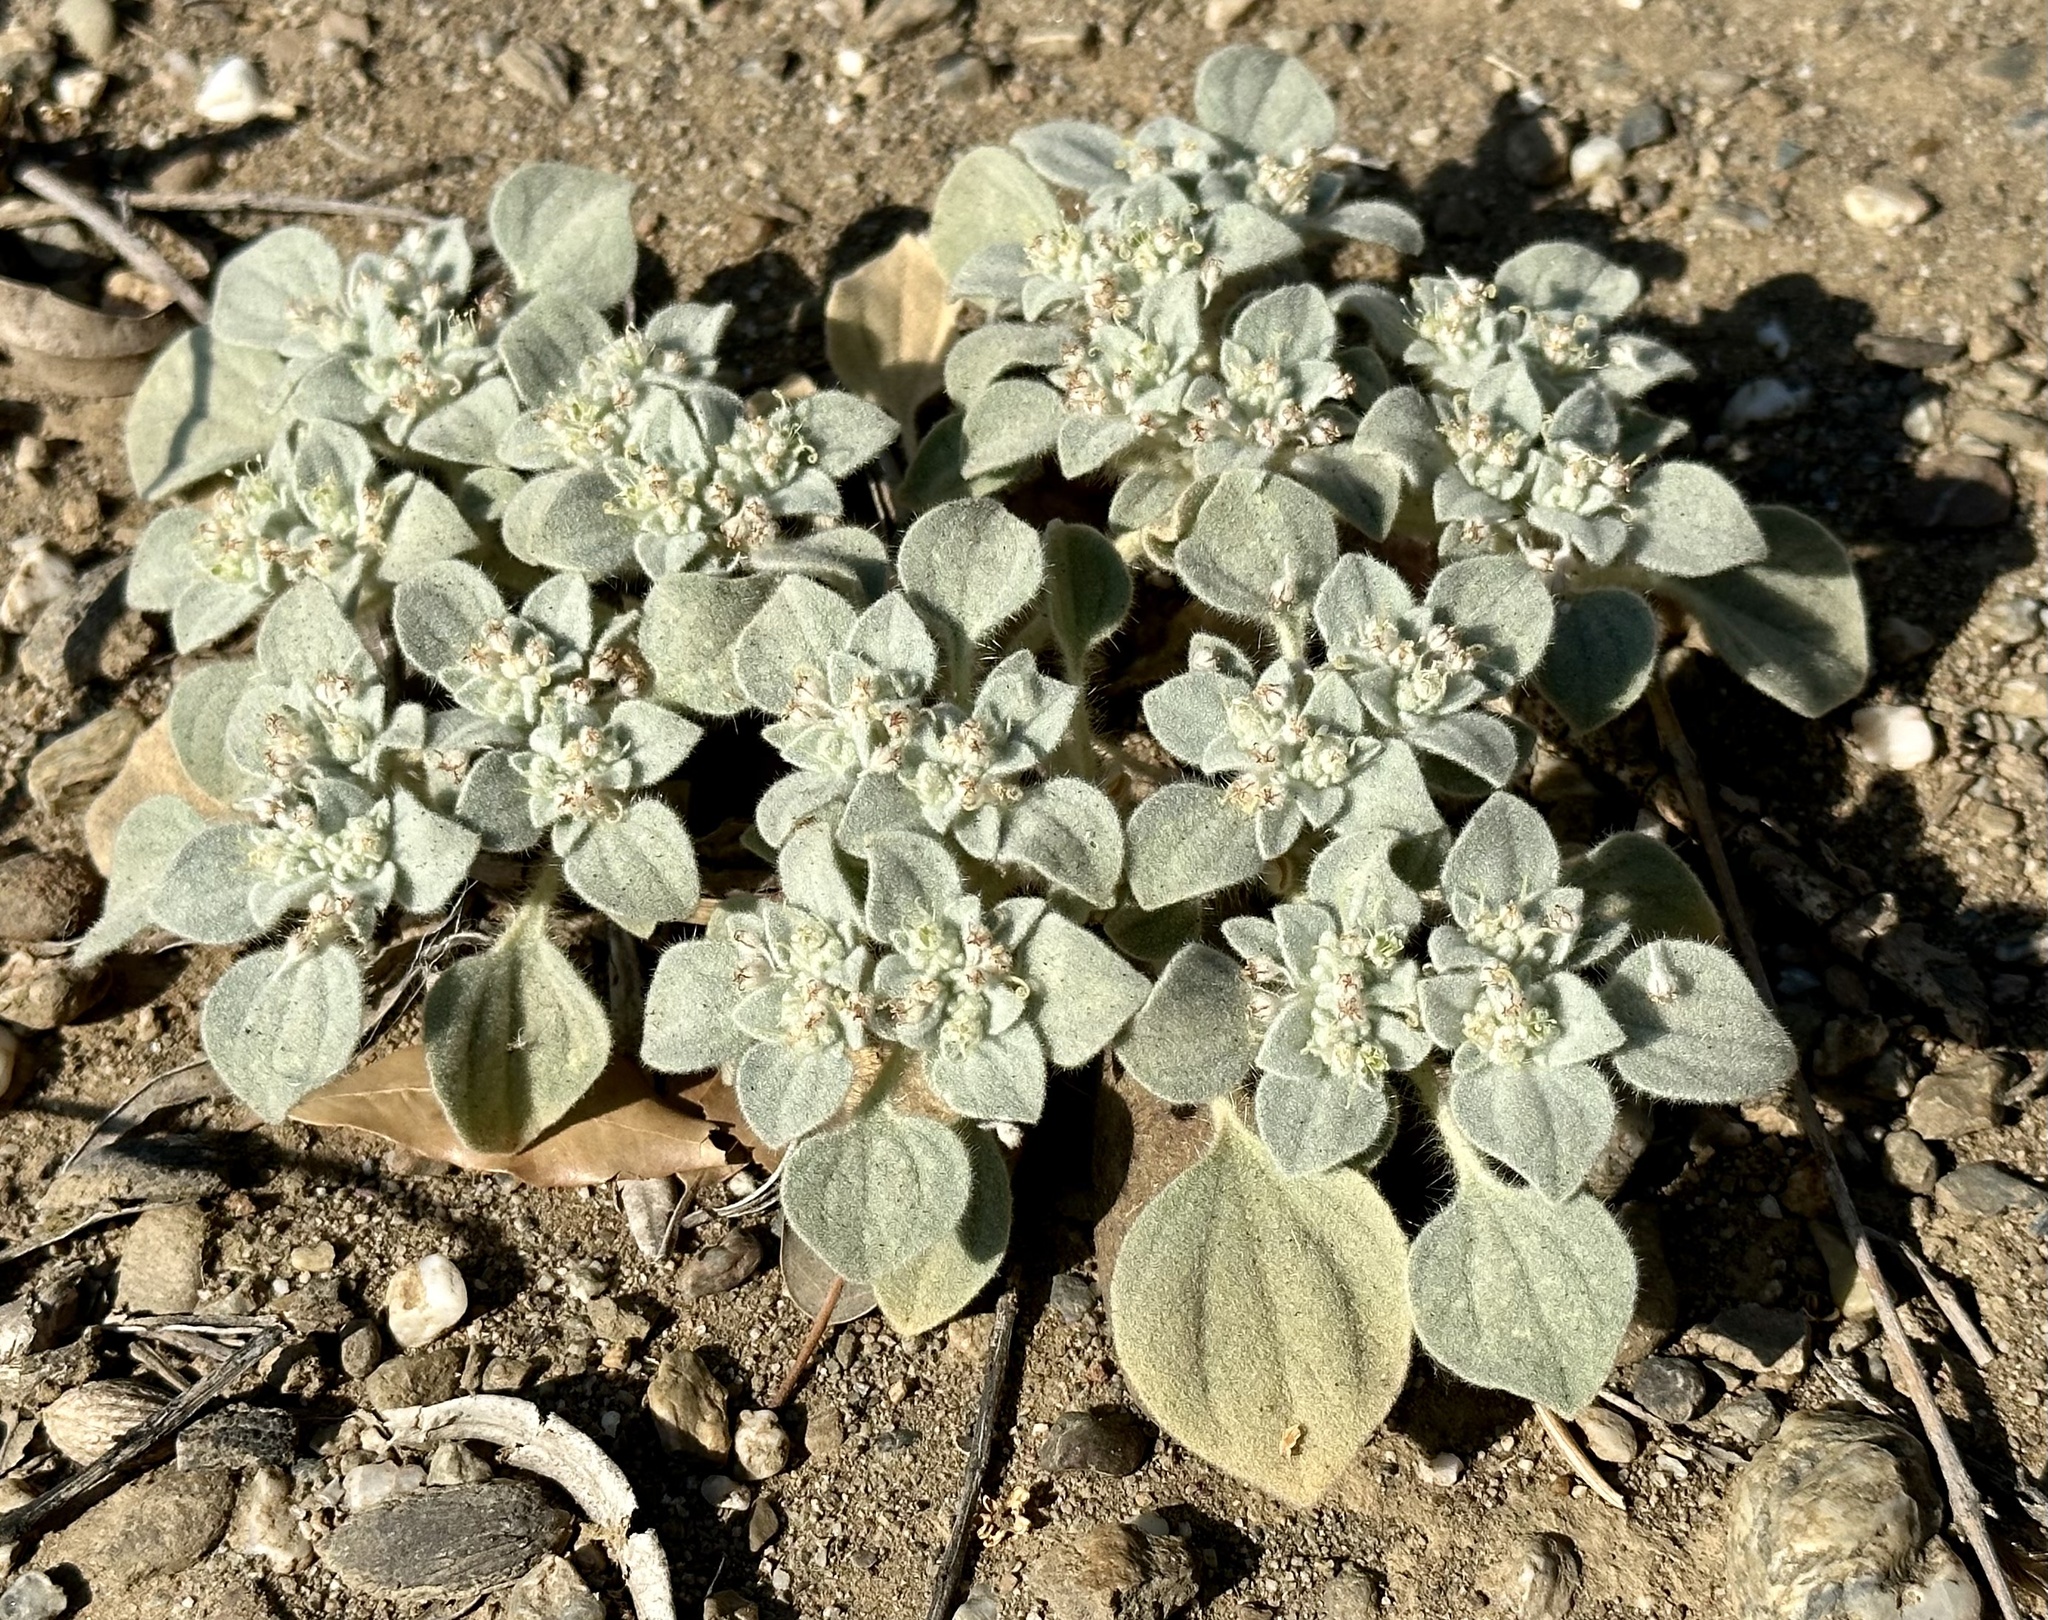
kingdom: Plantae
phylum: Tracheophyta
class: Magnoliopsida
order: Malpighiales
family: Euphorbiaceae
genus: Croton
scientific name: Croton setiger
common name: Dove weed
